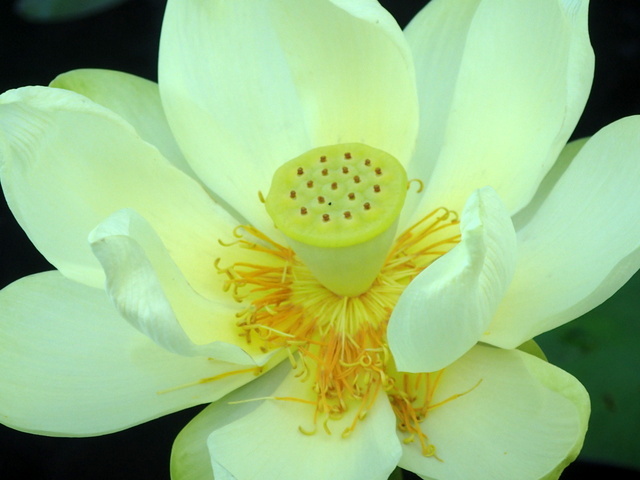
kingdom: Plantae
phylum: Tracheophyta
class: Magnoliopsida
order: Proteales
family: Nelumbonaceae
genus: Nelumbo
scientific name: Nelumbo lutea
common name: American lotus
